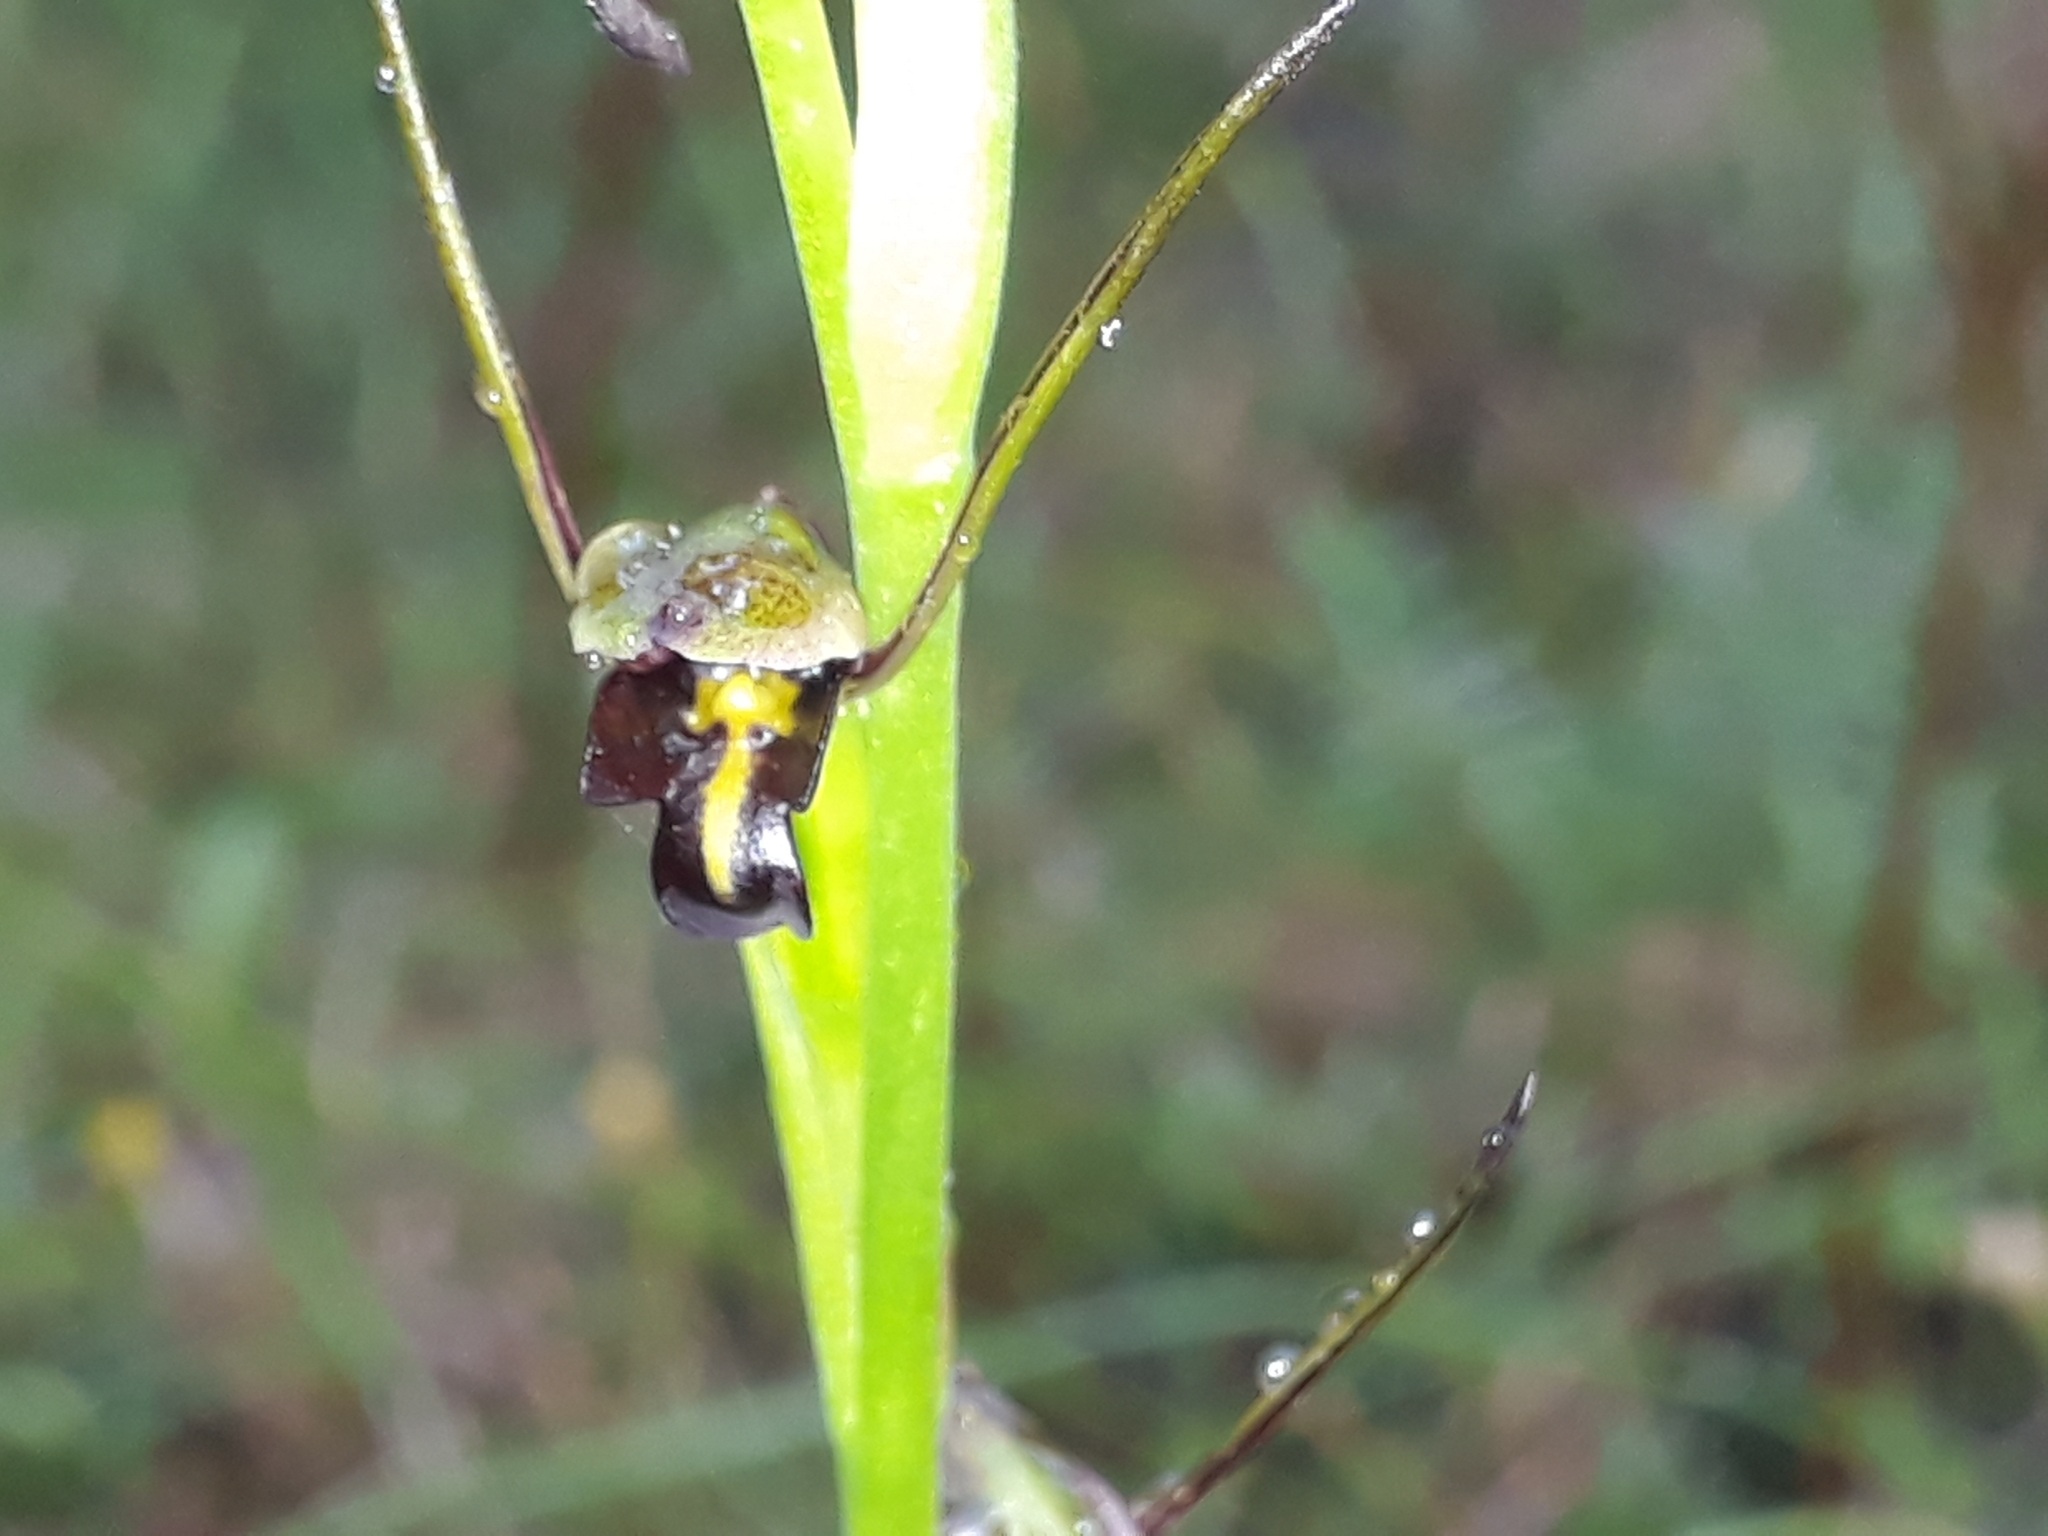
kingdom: Plantae
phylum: Tracheophyta
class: Liliopsida
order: Asparagales
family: Orchidaceae
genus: Orthoceras
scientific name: Orthoceras novae-zeelandiae
